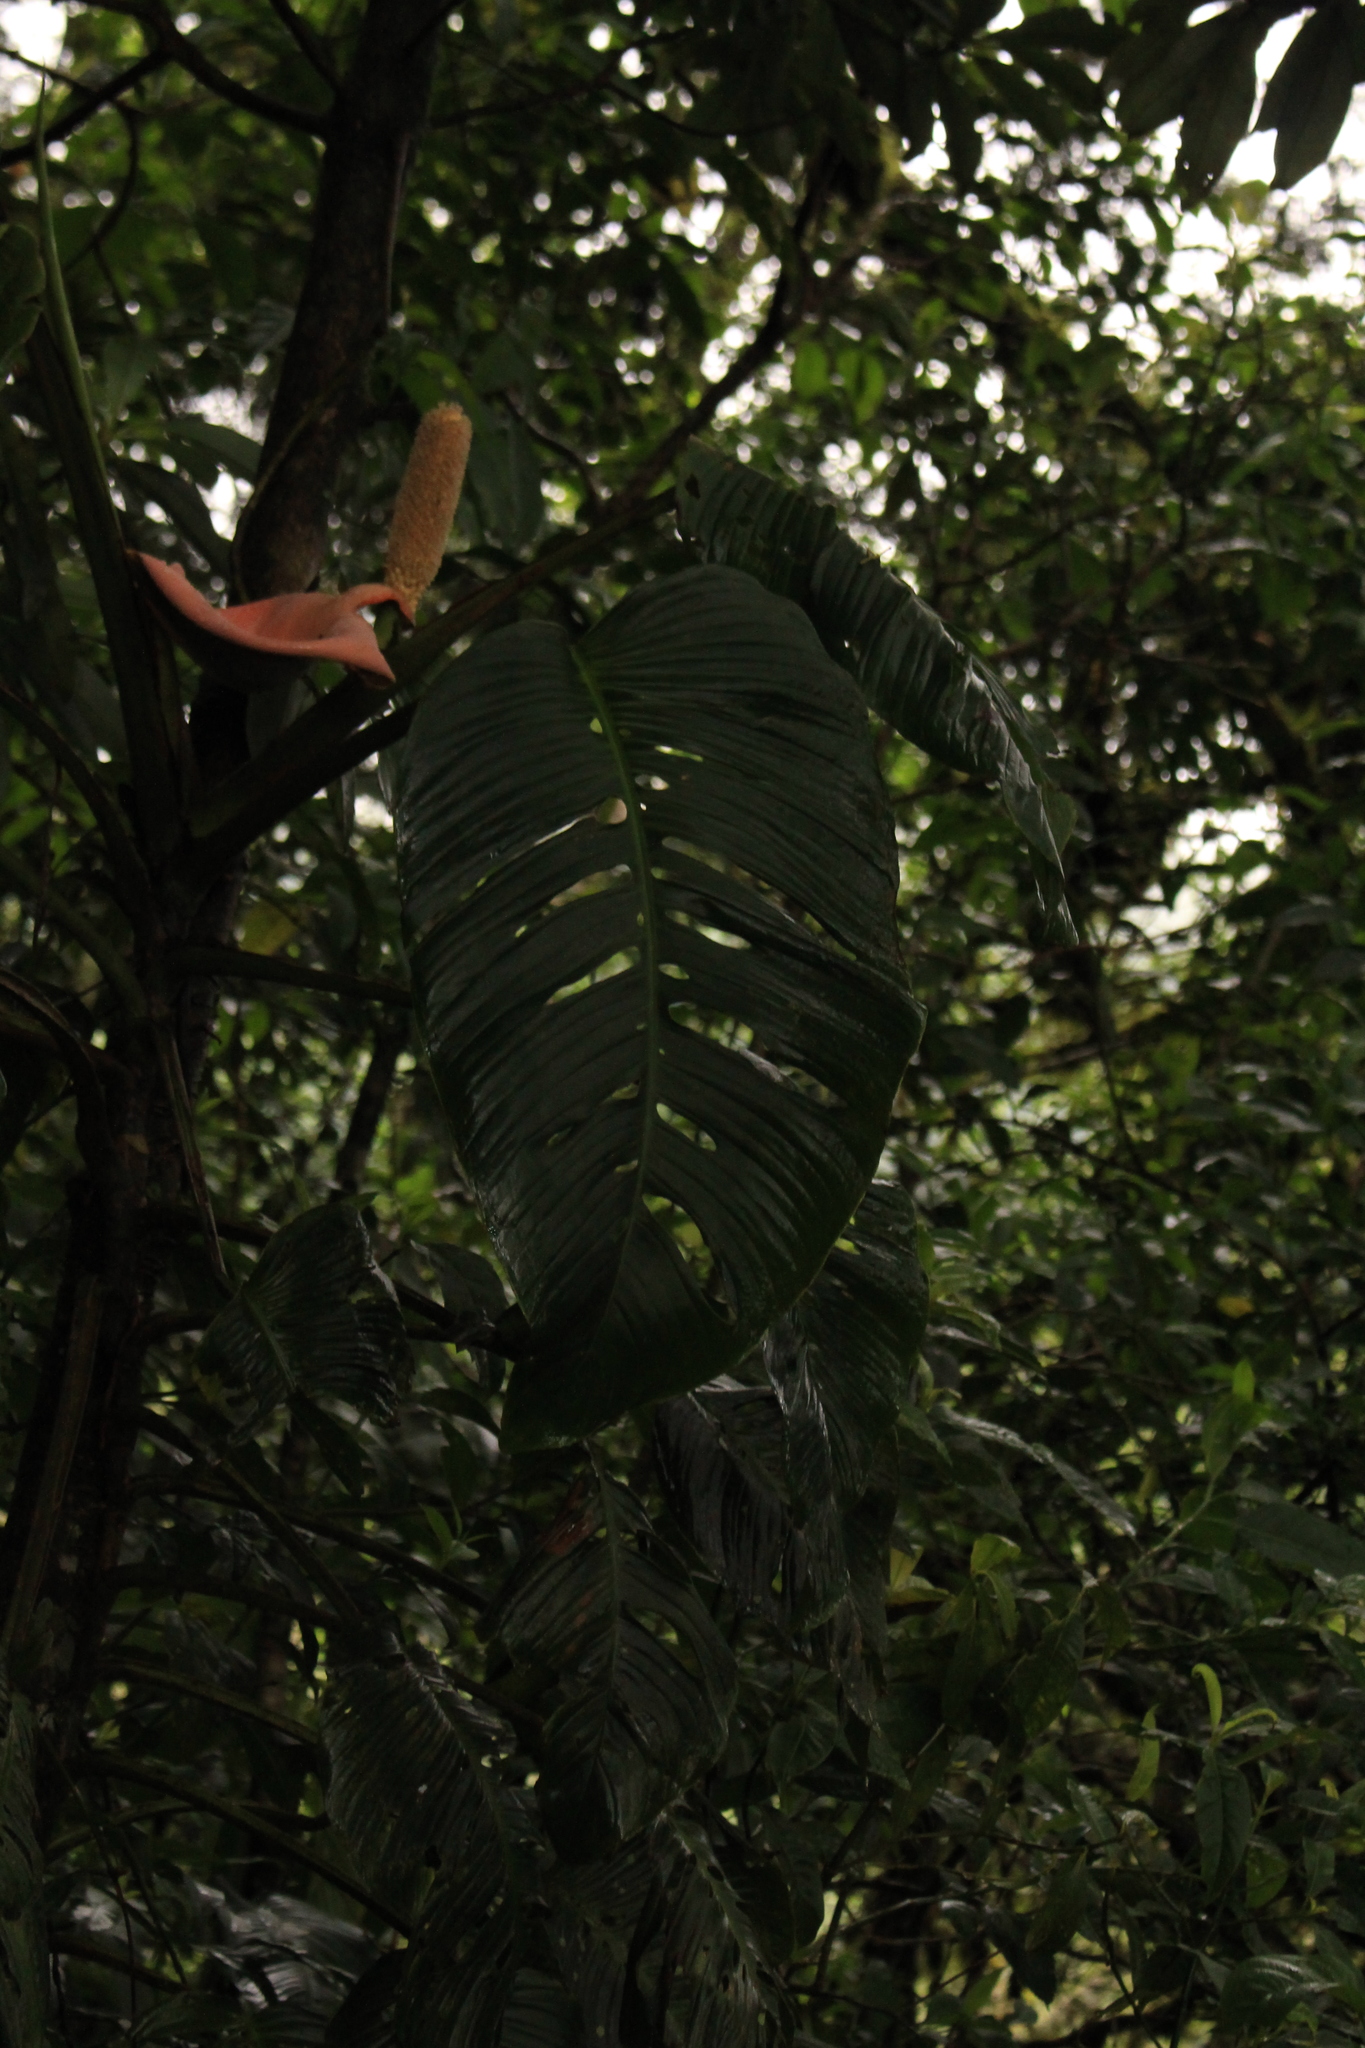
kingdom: Plantae
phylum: Tracheophyta
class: Liliopsida
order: Alismatales
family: Araceae
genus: Monstera
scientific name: Monstera oreophila
